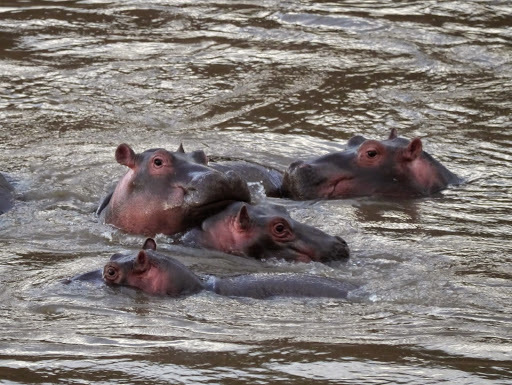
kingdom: Animalia
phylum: Chordata
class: Mammalia
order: Artiodactyla
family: Hippopotamidae
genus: Hippopotamus
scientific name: Hippopotamus amphibius
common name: Common hippopotamus
